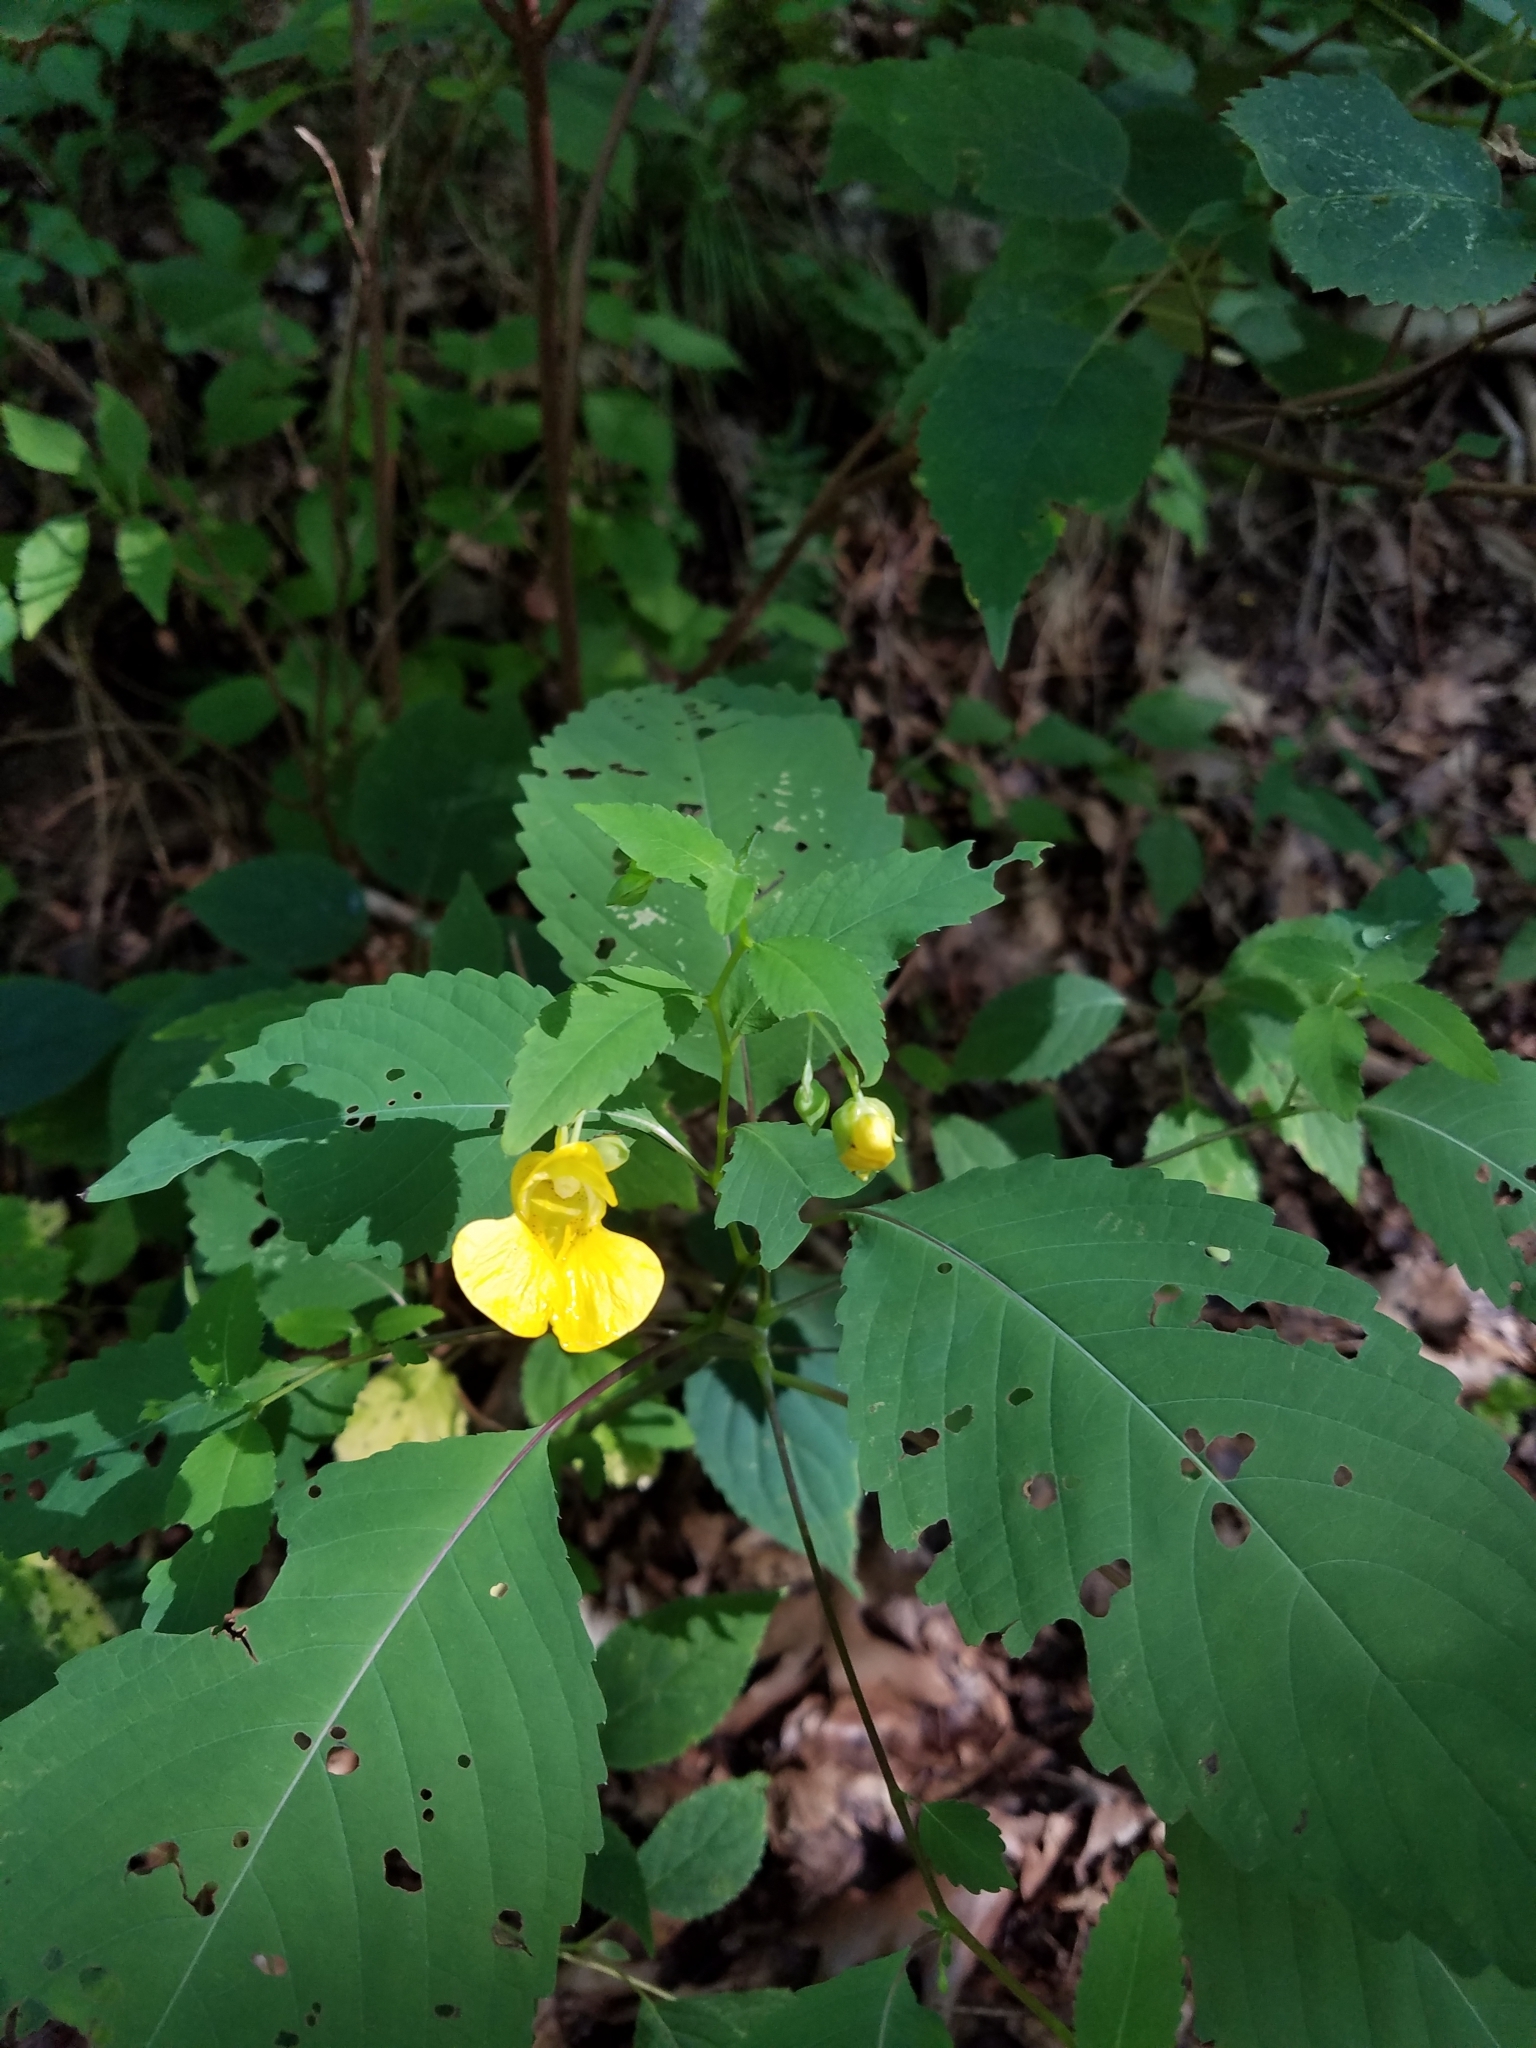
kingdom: Plantae
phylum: Tracheophyta
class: Magnoliopsida
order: Ericales
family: Balsaminaceae
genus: Impatiens
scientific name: Impatiens pallida
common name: Pale snapweed
